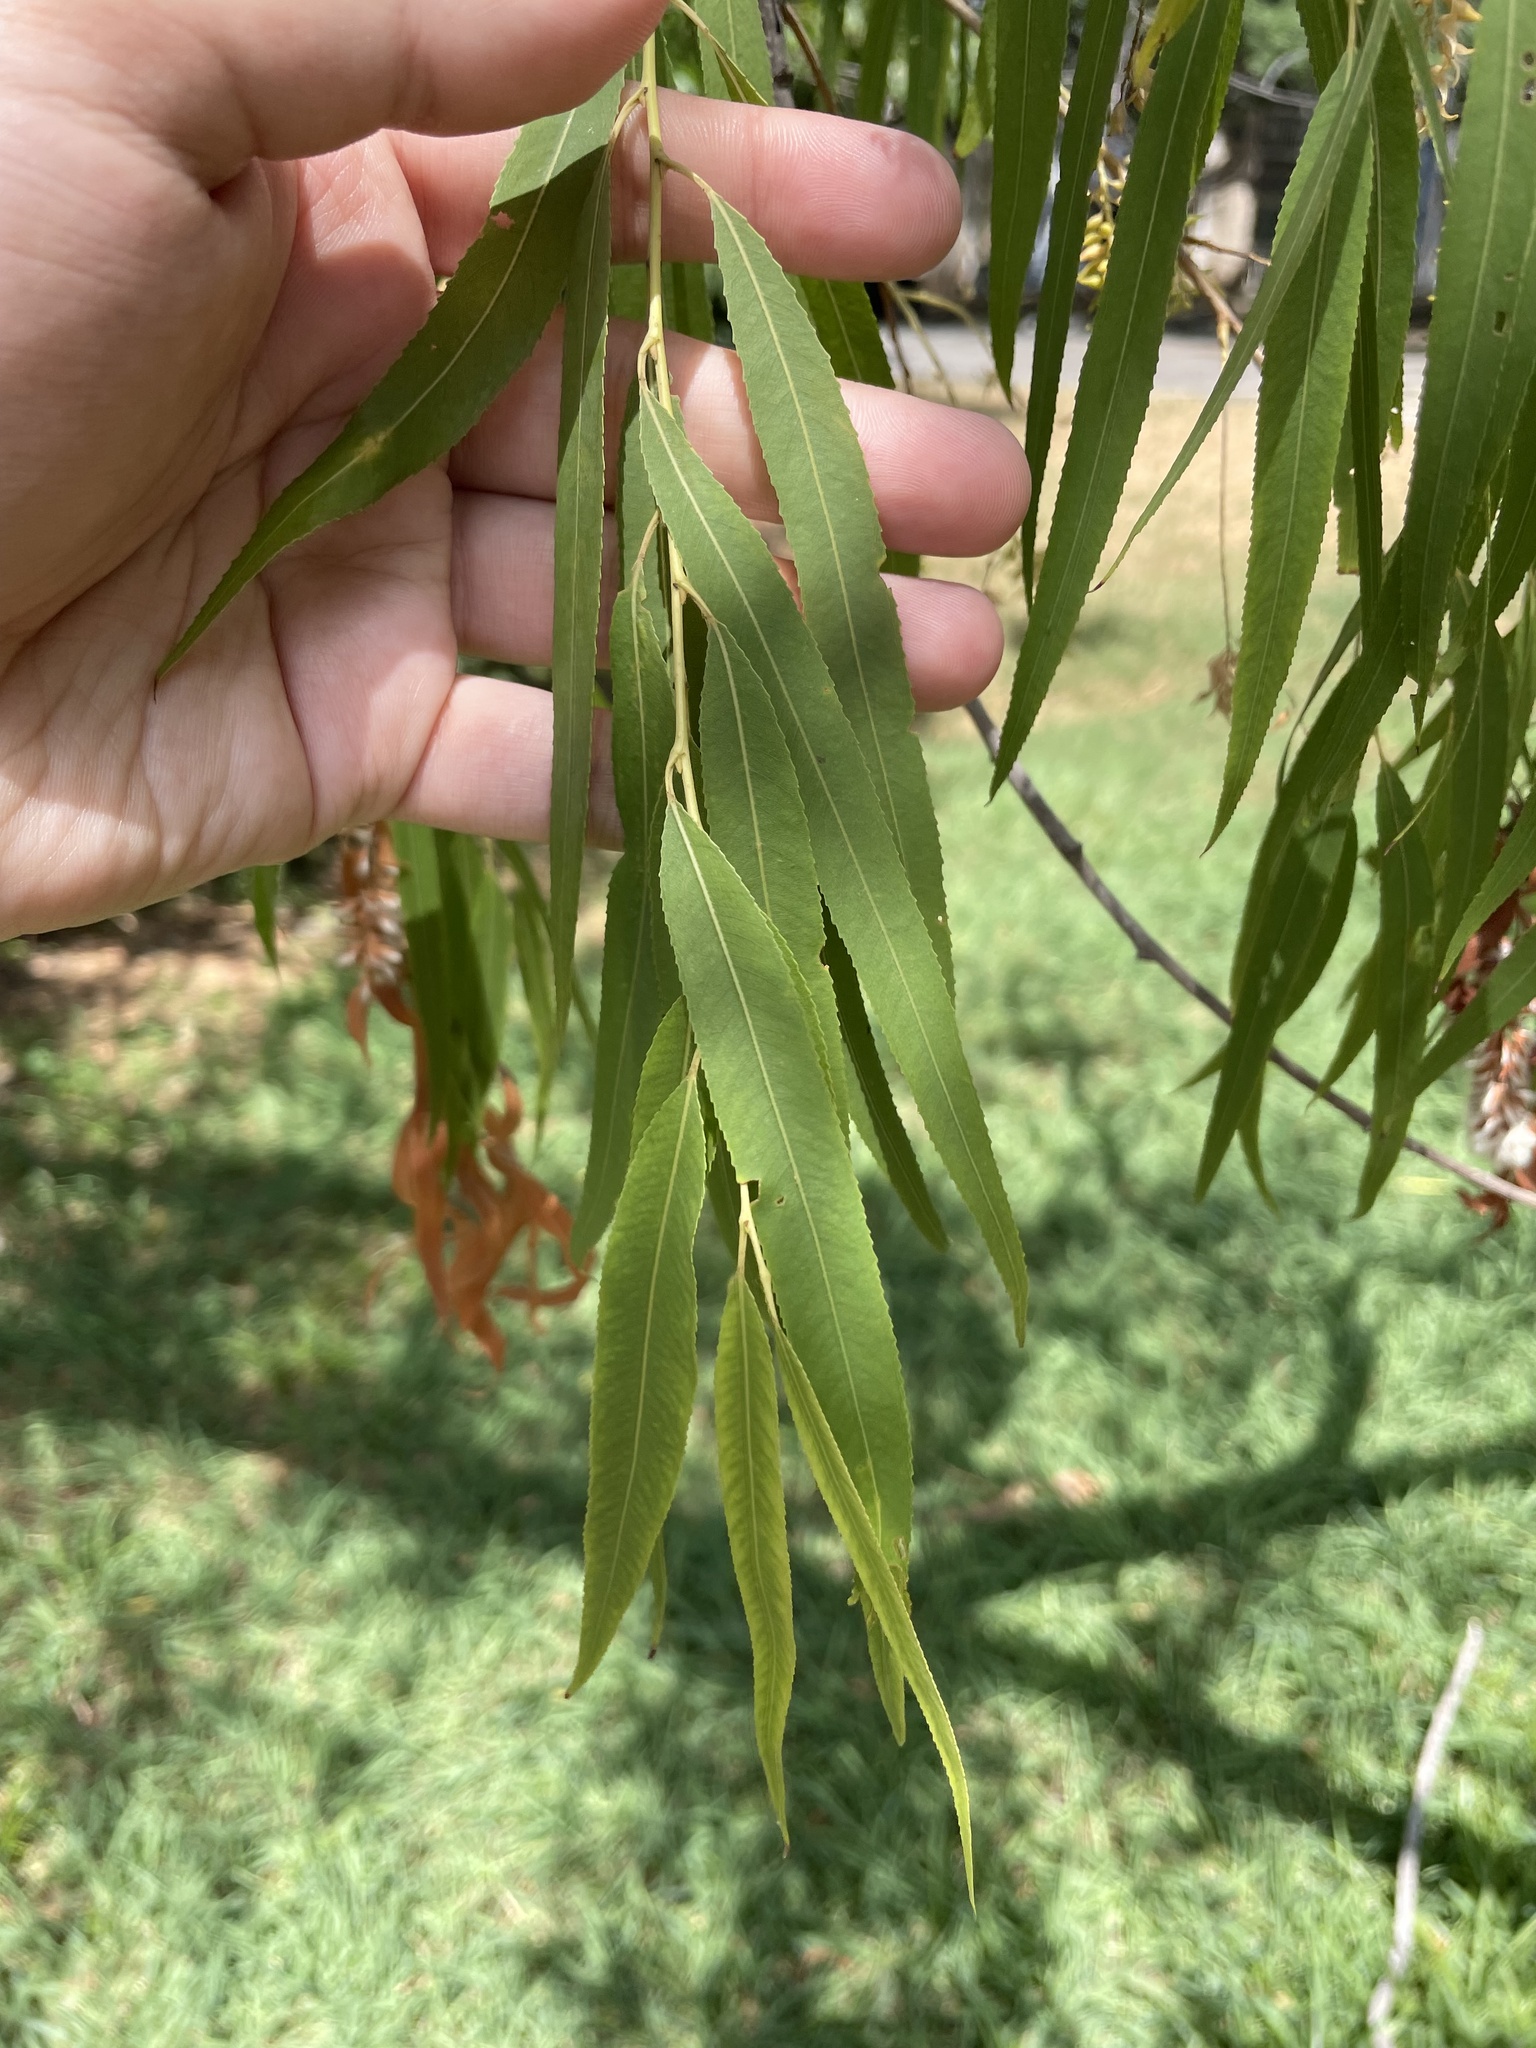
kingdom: Plantae
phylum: Tracheophyta
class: Magnoliopsida
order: Malpighiales
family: Salicaceae
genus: Salix
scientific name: Salix nigra
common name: Black willow
